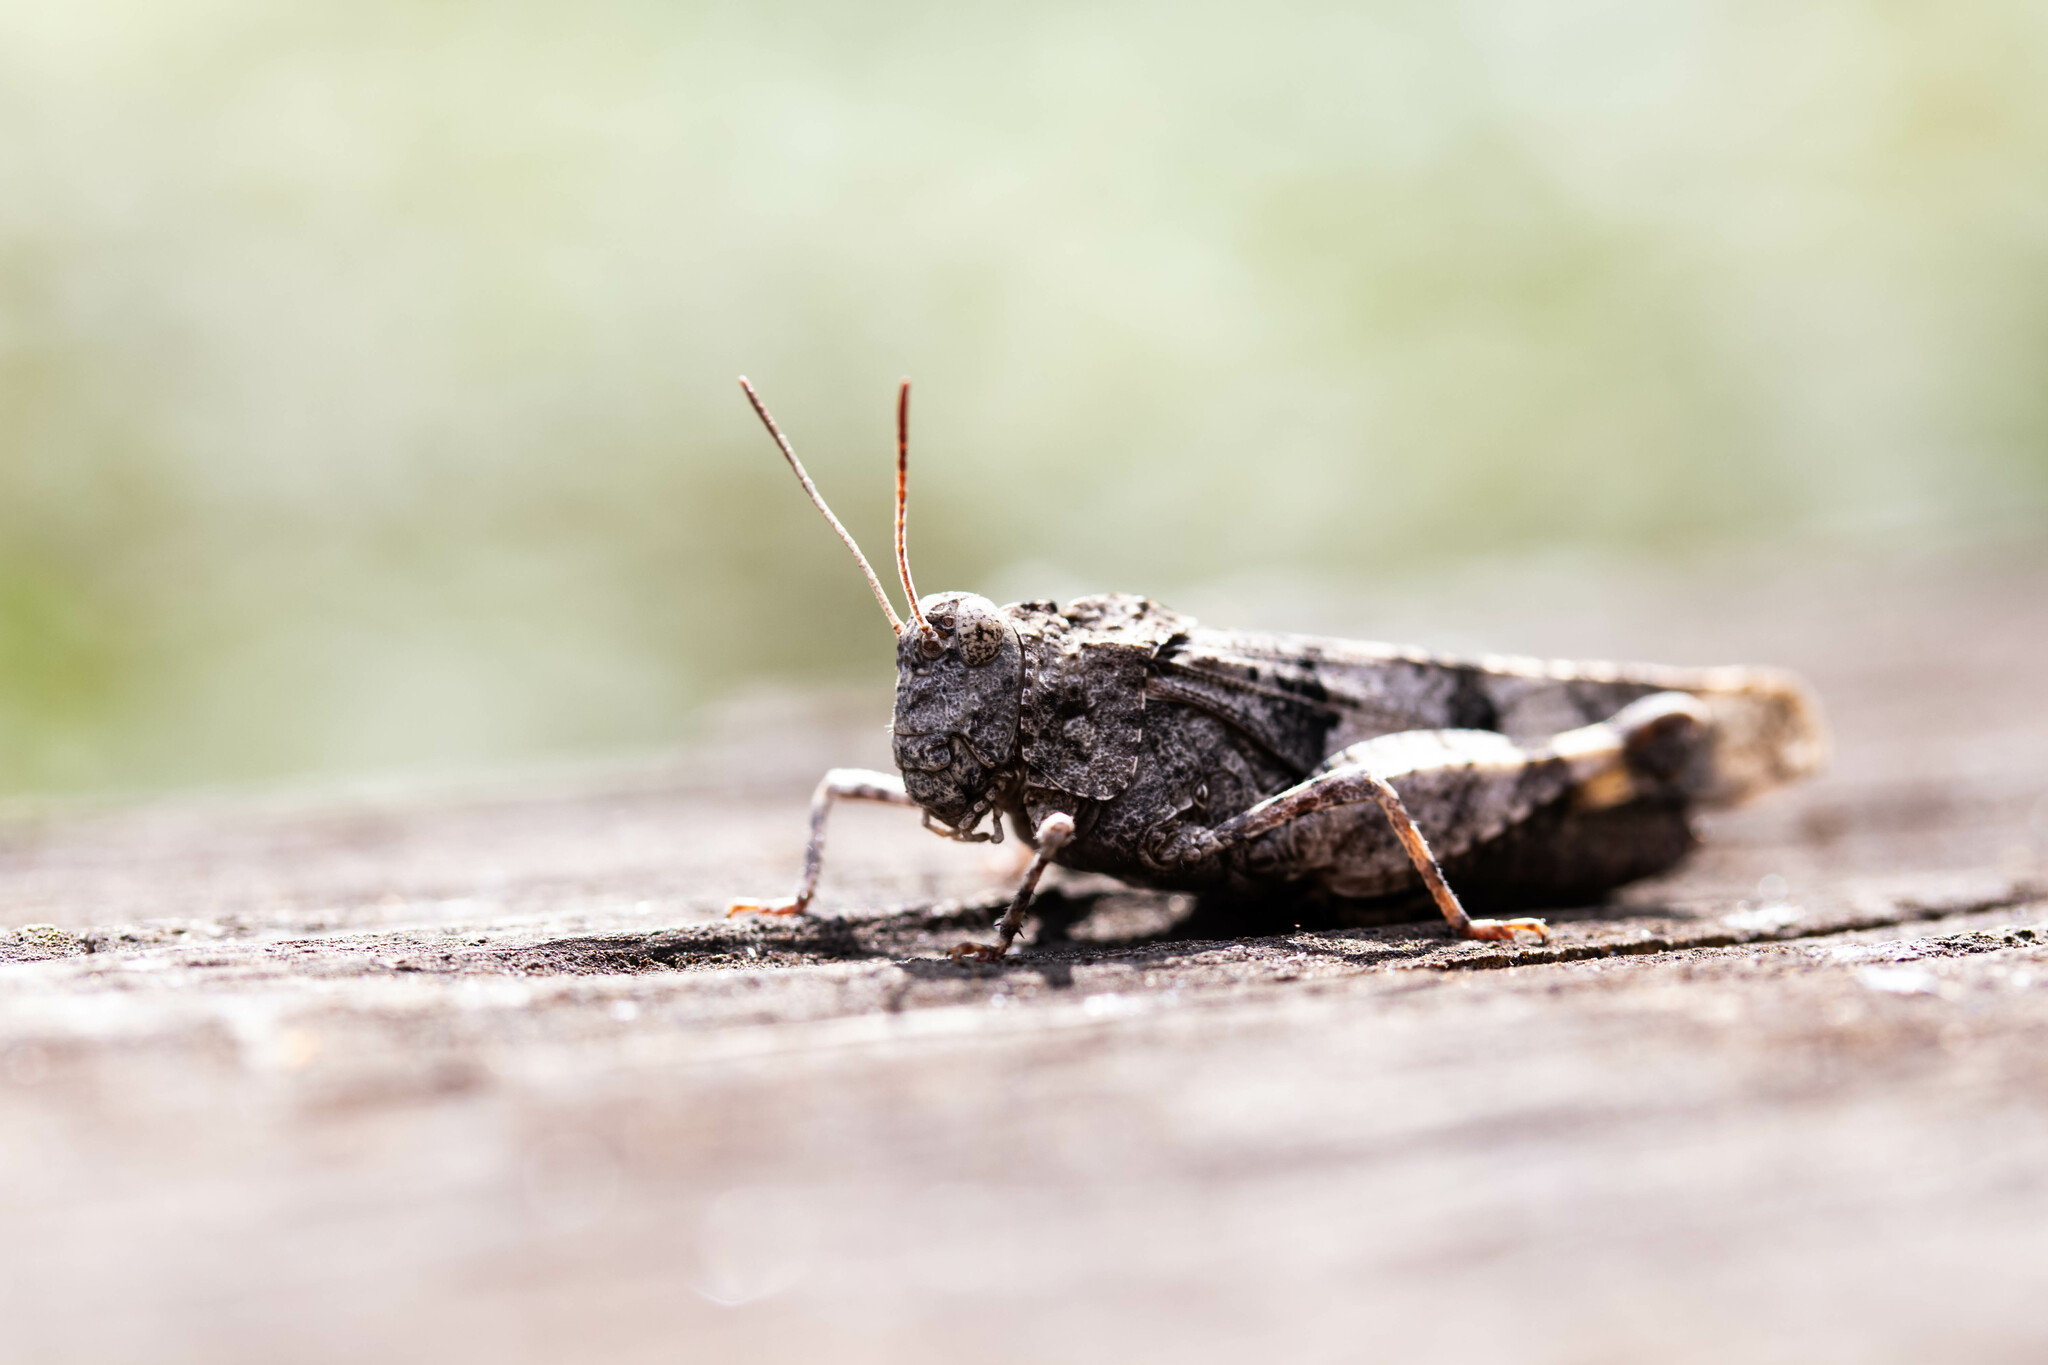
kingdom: Animalia
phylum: Arthropoda
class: Insecta
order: Orthoptera
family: Acrididae
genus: Oedipoda
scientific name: Oedipoda caerulescens
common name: Blue-winged grasshopper
